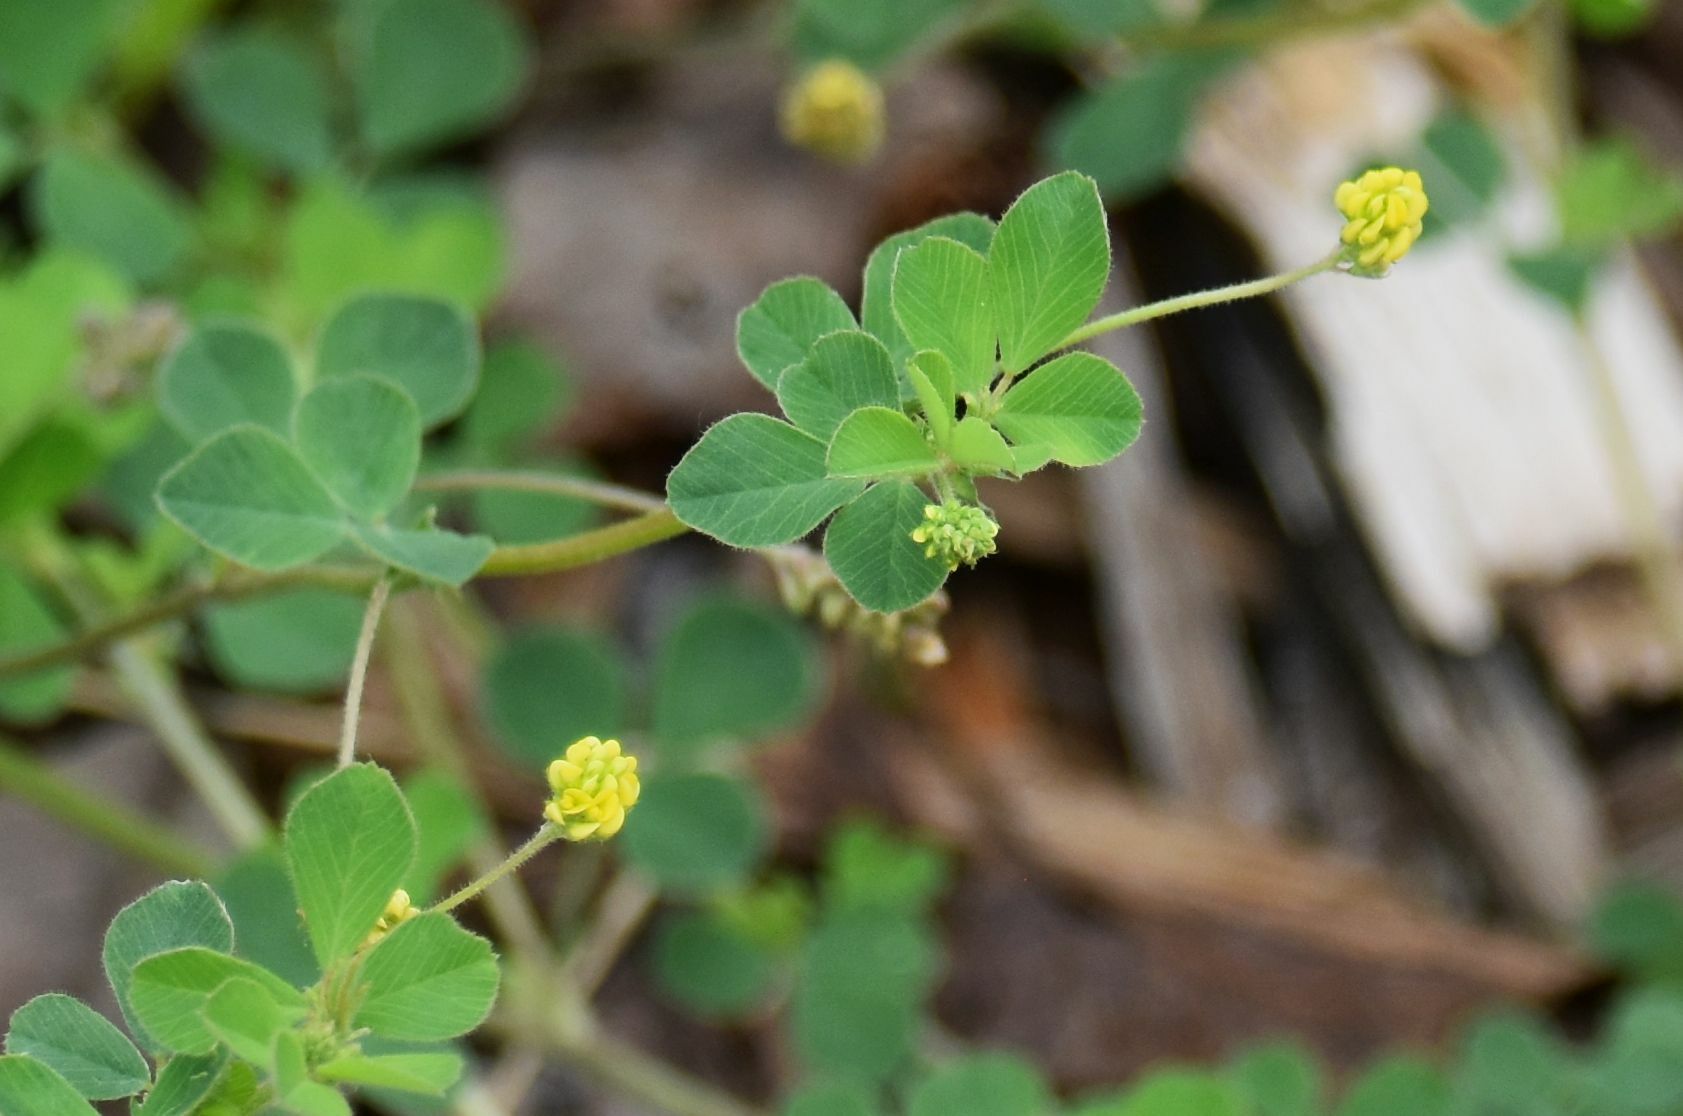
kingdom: Plantae
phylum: Tracheophyta
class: Magnoliopsida
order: Fabales
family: Fabaceae
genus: Medicago
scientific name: Medicago lupulina
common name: Black medick
